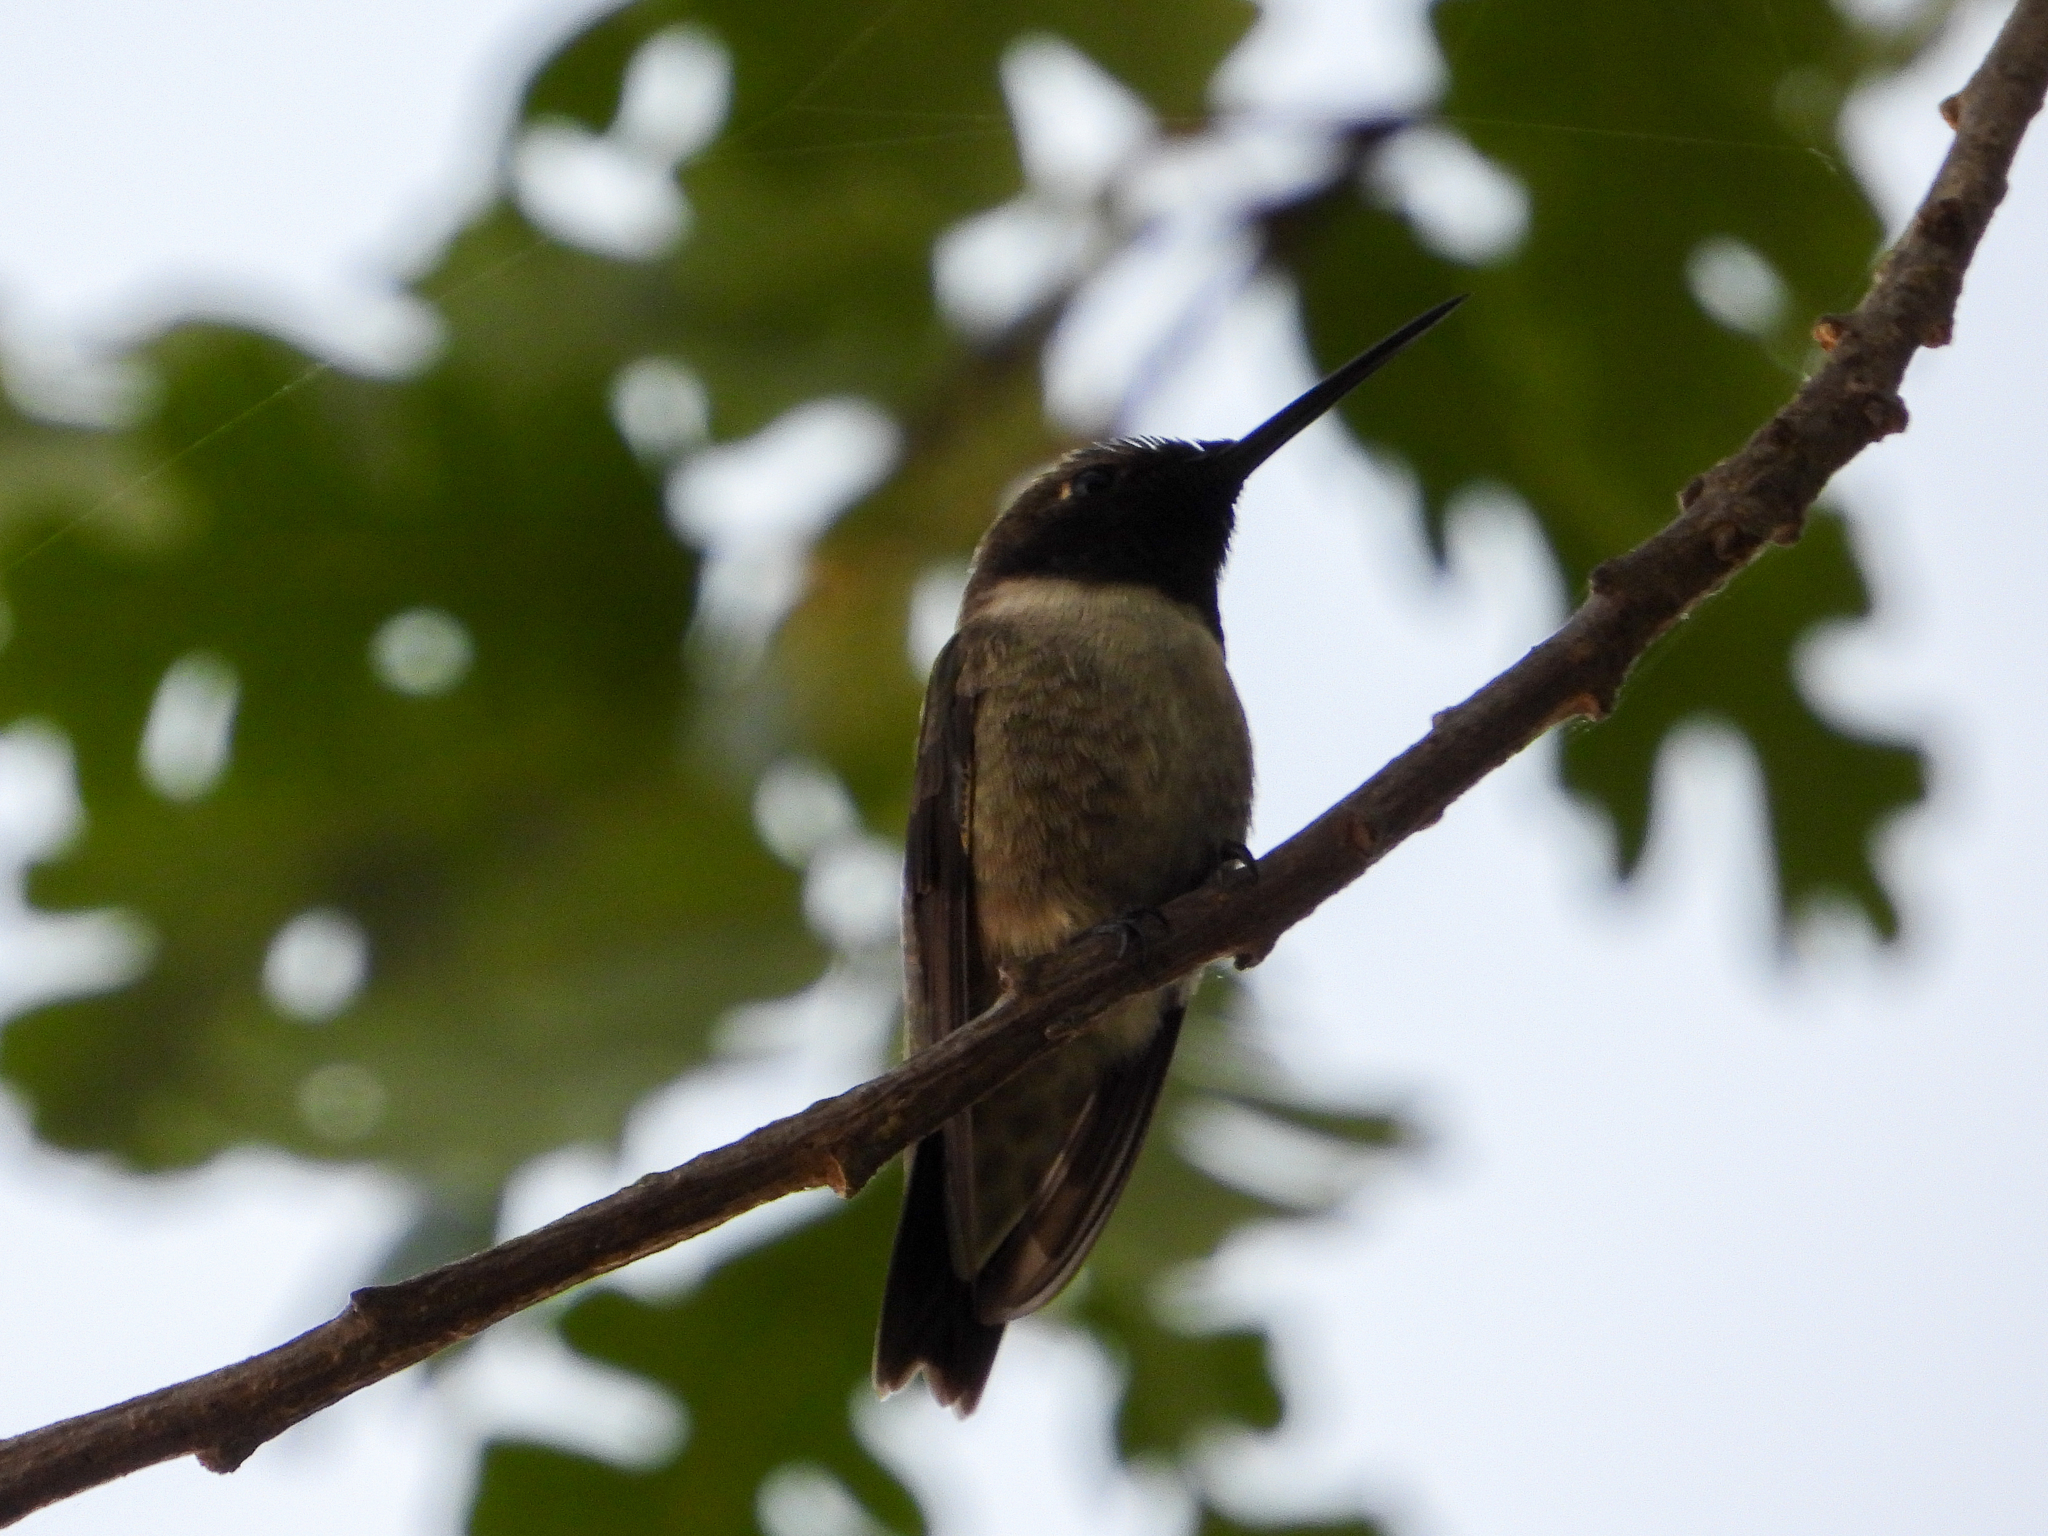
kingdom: Animalia
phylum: Chordata
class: Aves
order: Apodiformes
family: Trochilidae
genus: Archilochus
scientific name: Archilochus alexandri
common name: Black-chinned hummingbird
